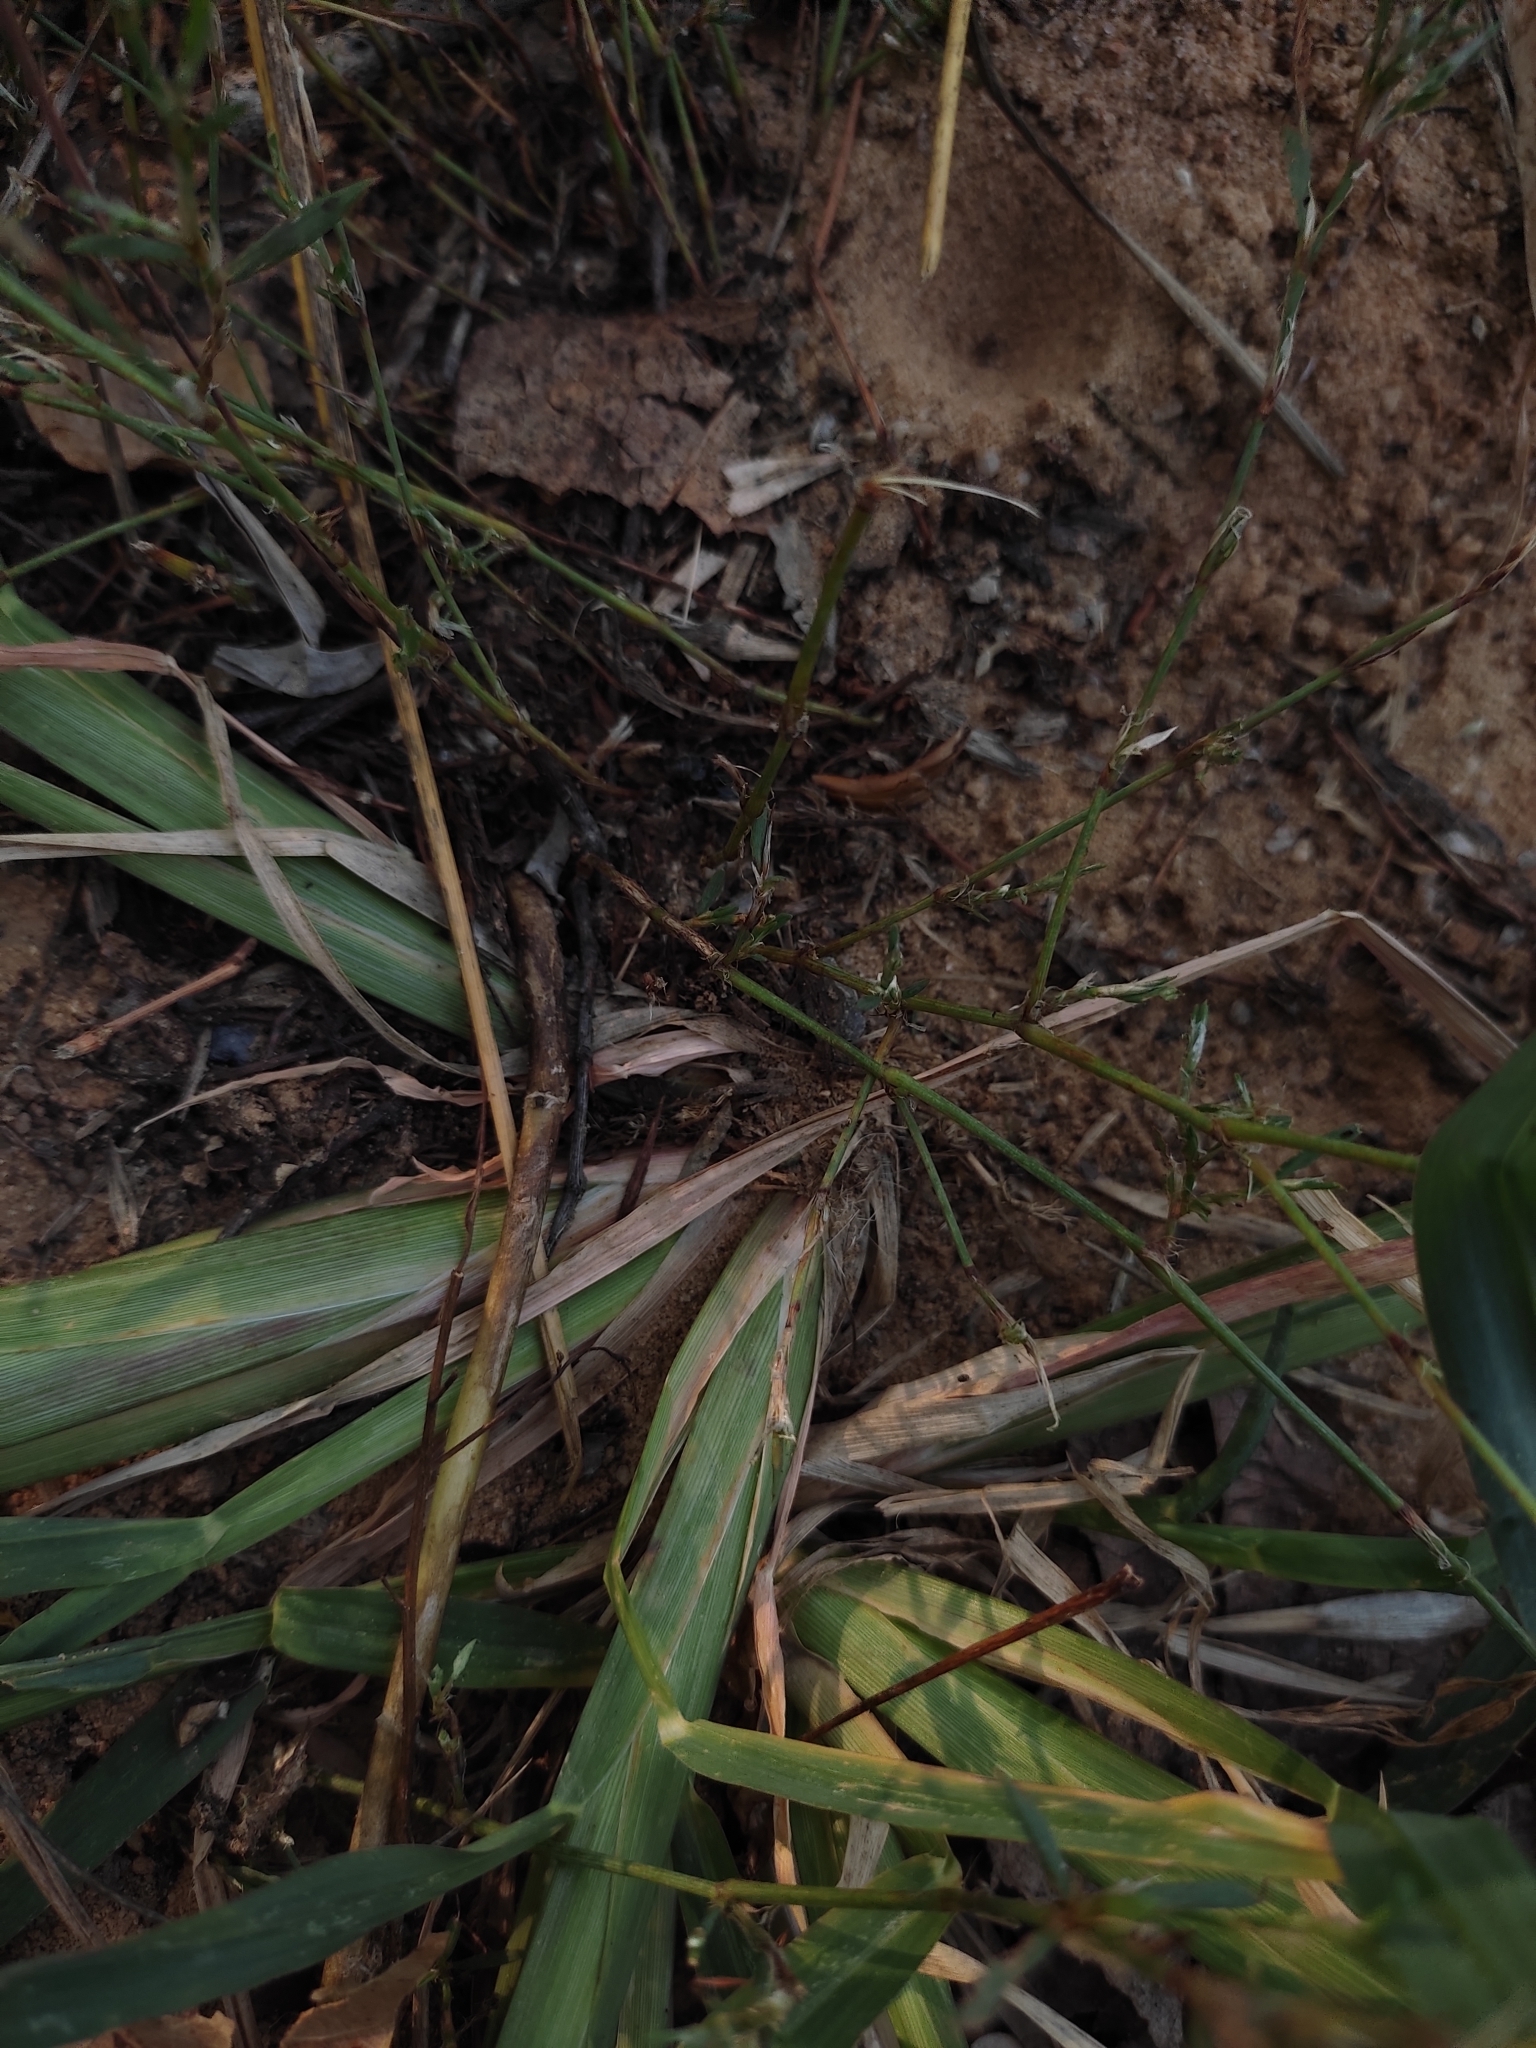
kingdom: Plantae
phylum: Tracheophyta
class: Liliopsida
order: Poales
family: Poaceae
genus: Echinochloa
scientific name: Echinochloa crus-galli
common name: Cockspur
